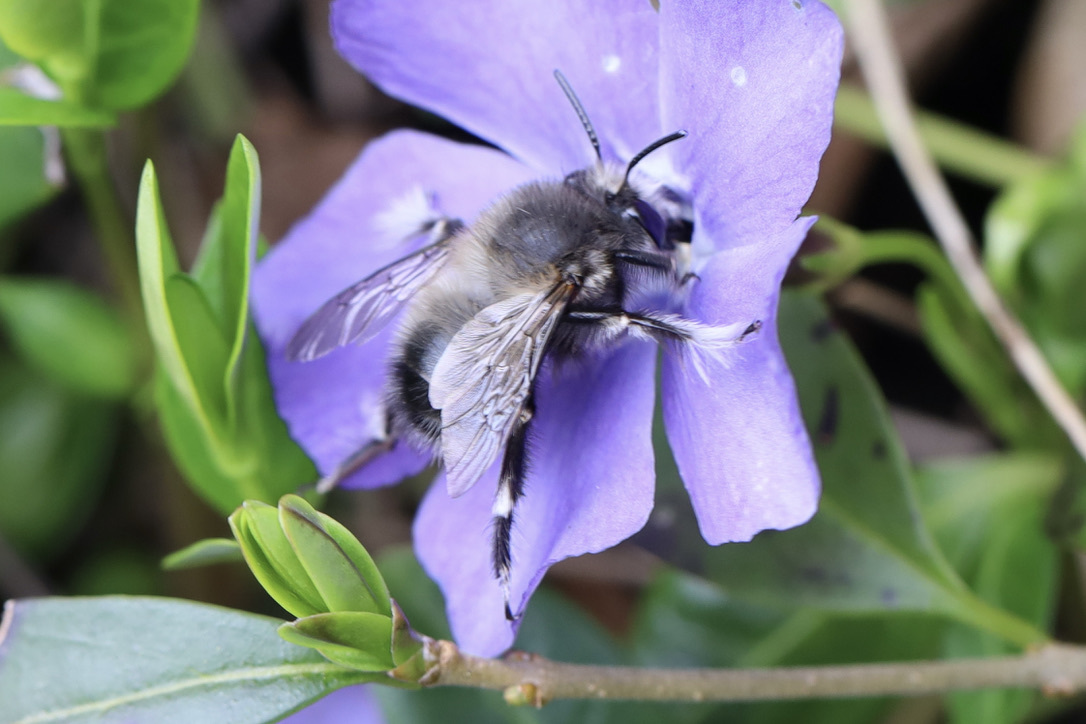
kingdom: Animalia
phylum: Arthropoda
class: Insecta
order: Hymenoptera
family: Apidae
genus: Anthophora
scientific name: Anthophora pacifica
